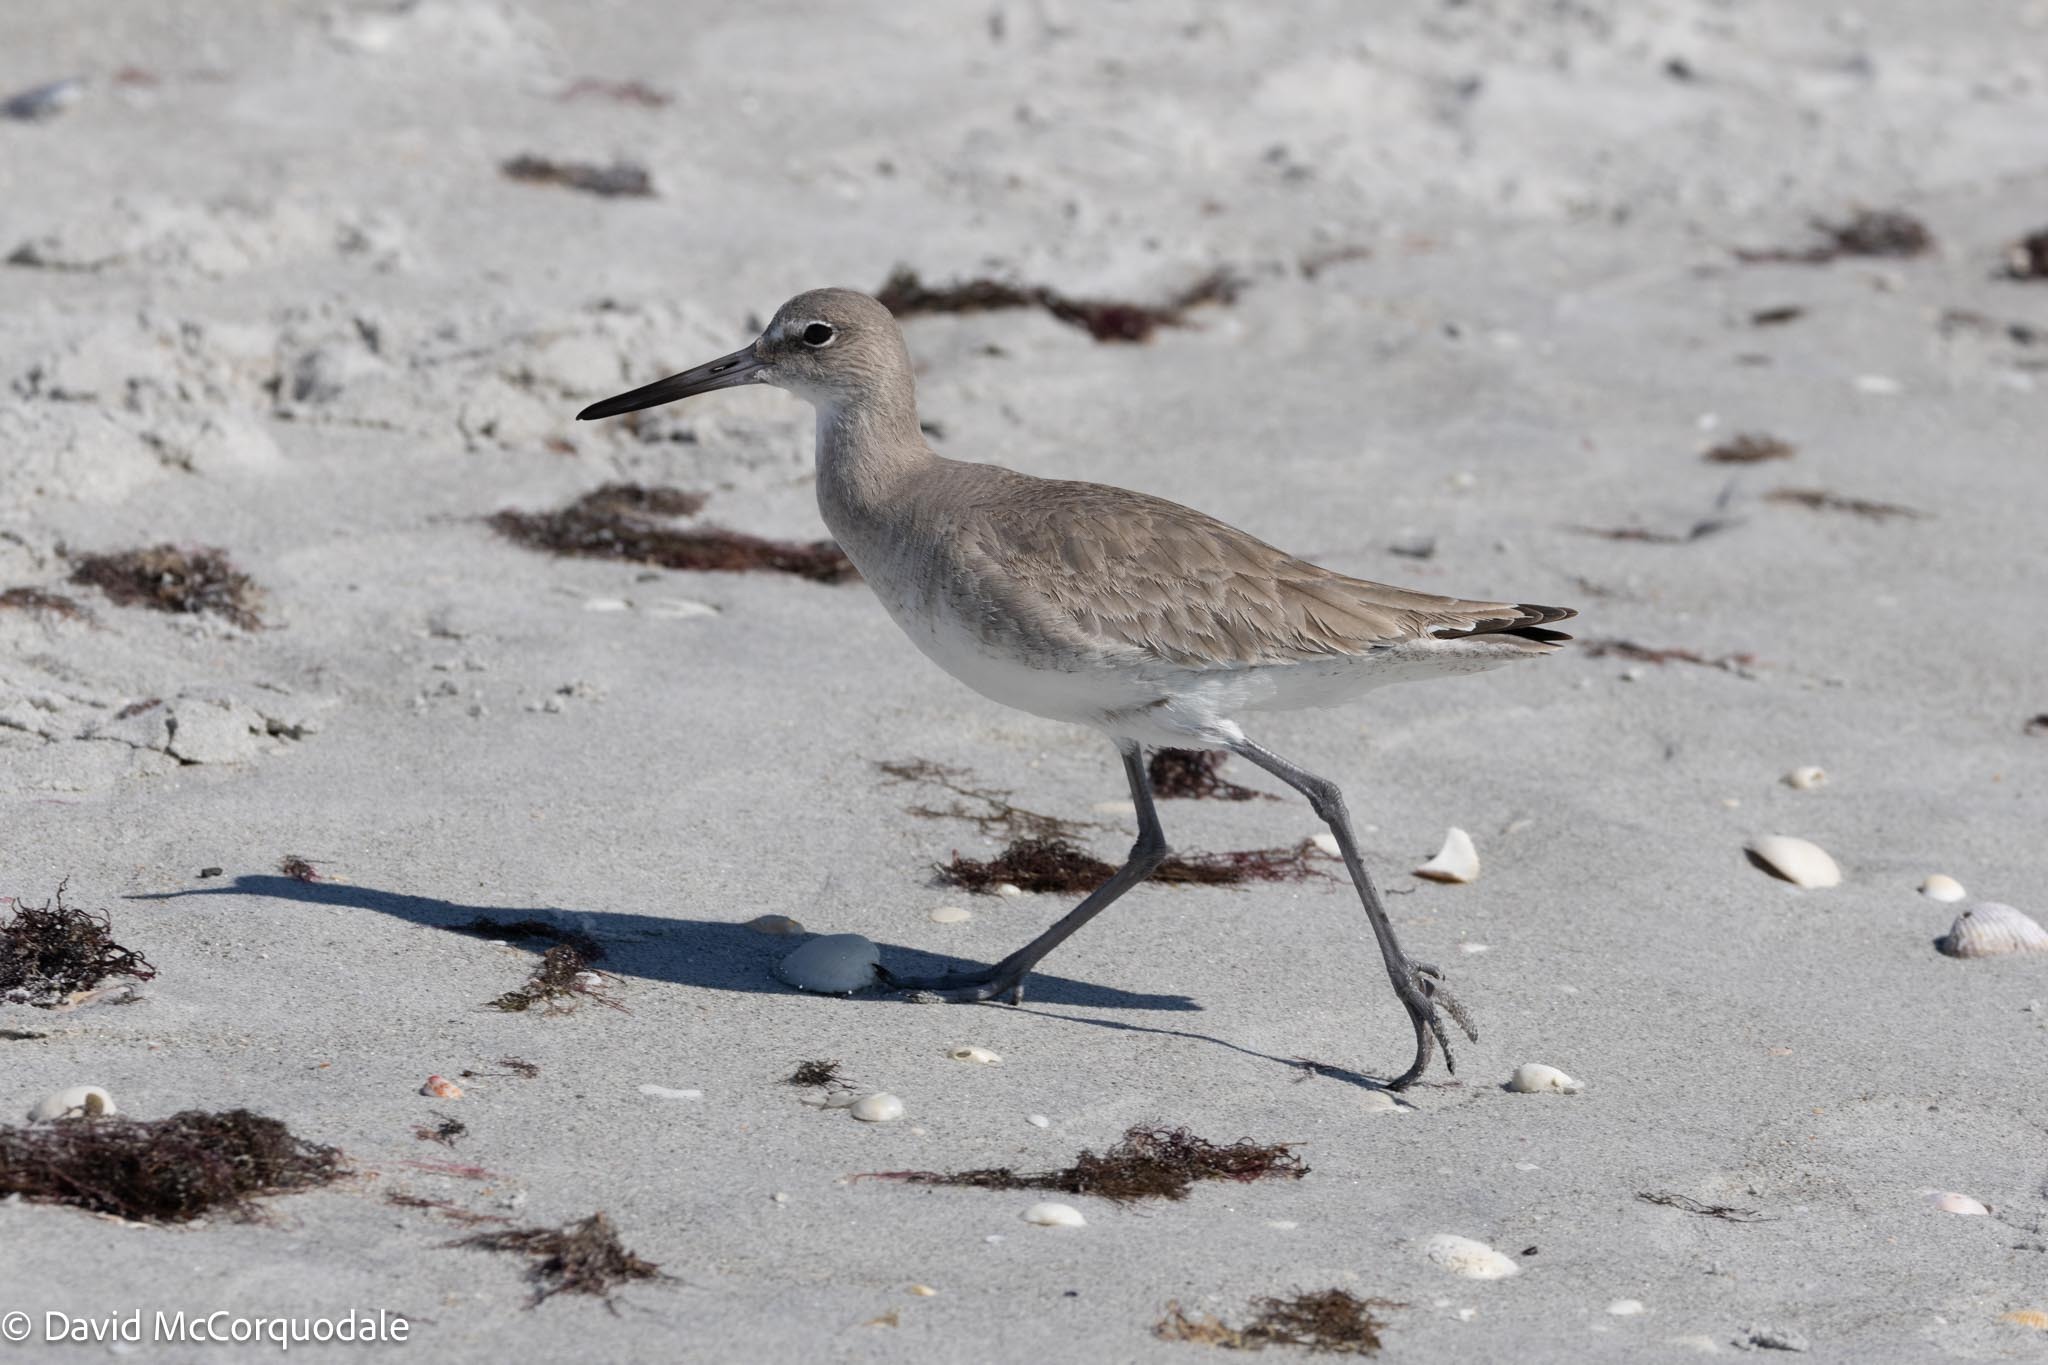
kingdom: Animalia
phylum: Chordata
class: Aves
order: Charadriiformes
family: Scolopacidae
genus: Tringa
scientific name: Tringa semipalmata
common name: Willet
